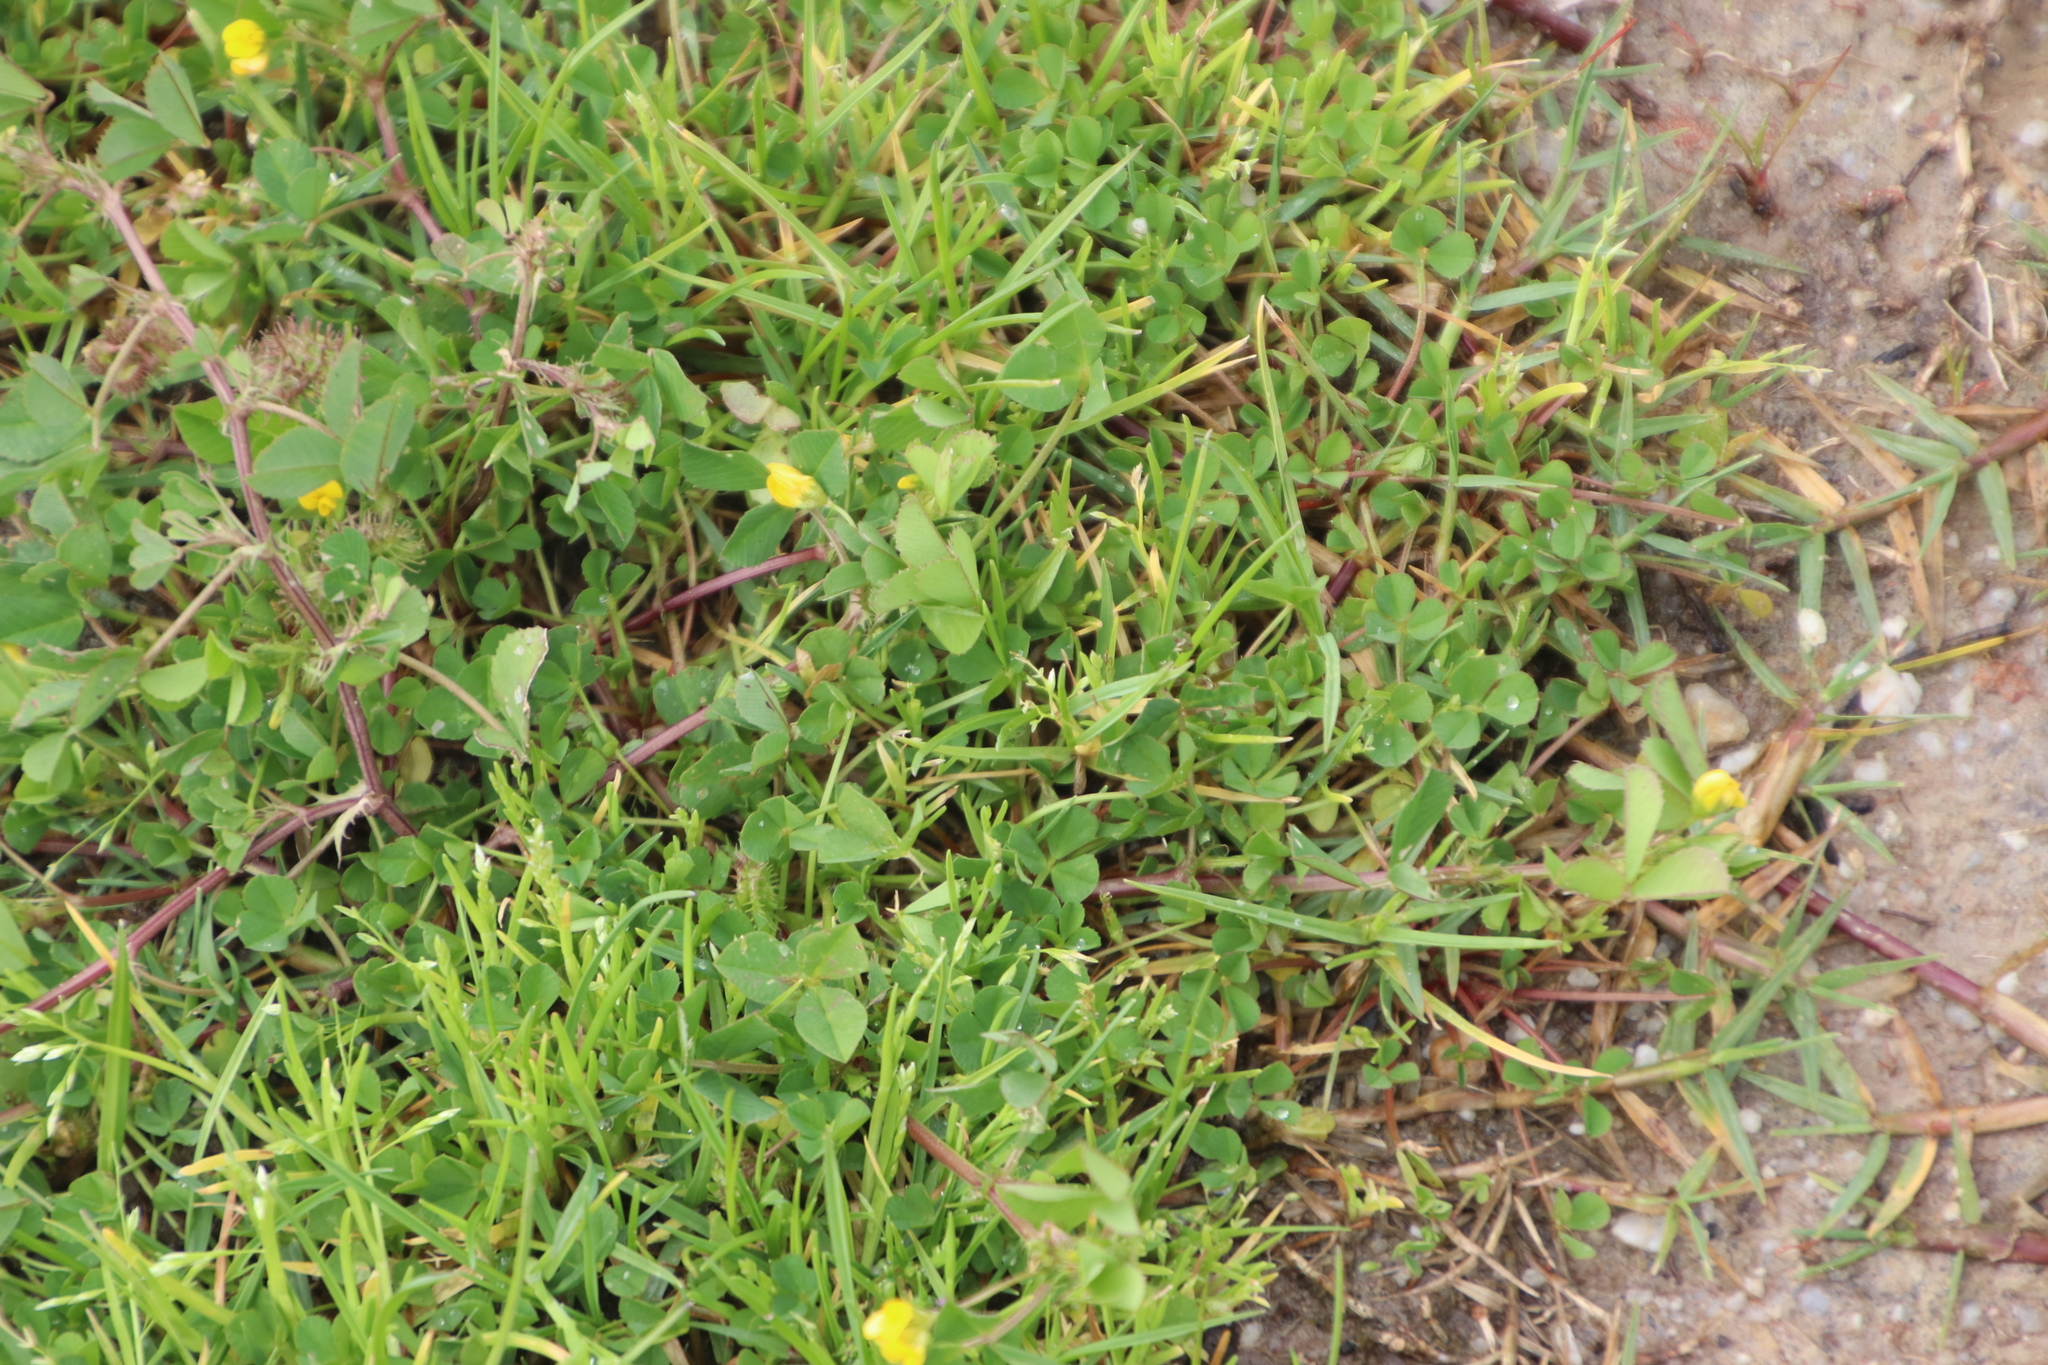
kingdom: Plantae
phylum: Tracheophyta
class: Magnoliopsida
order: Fabales
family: Fabaceae
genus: Medicago
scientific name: Medicago polymorpha
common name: Burclover
